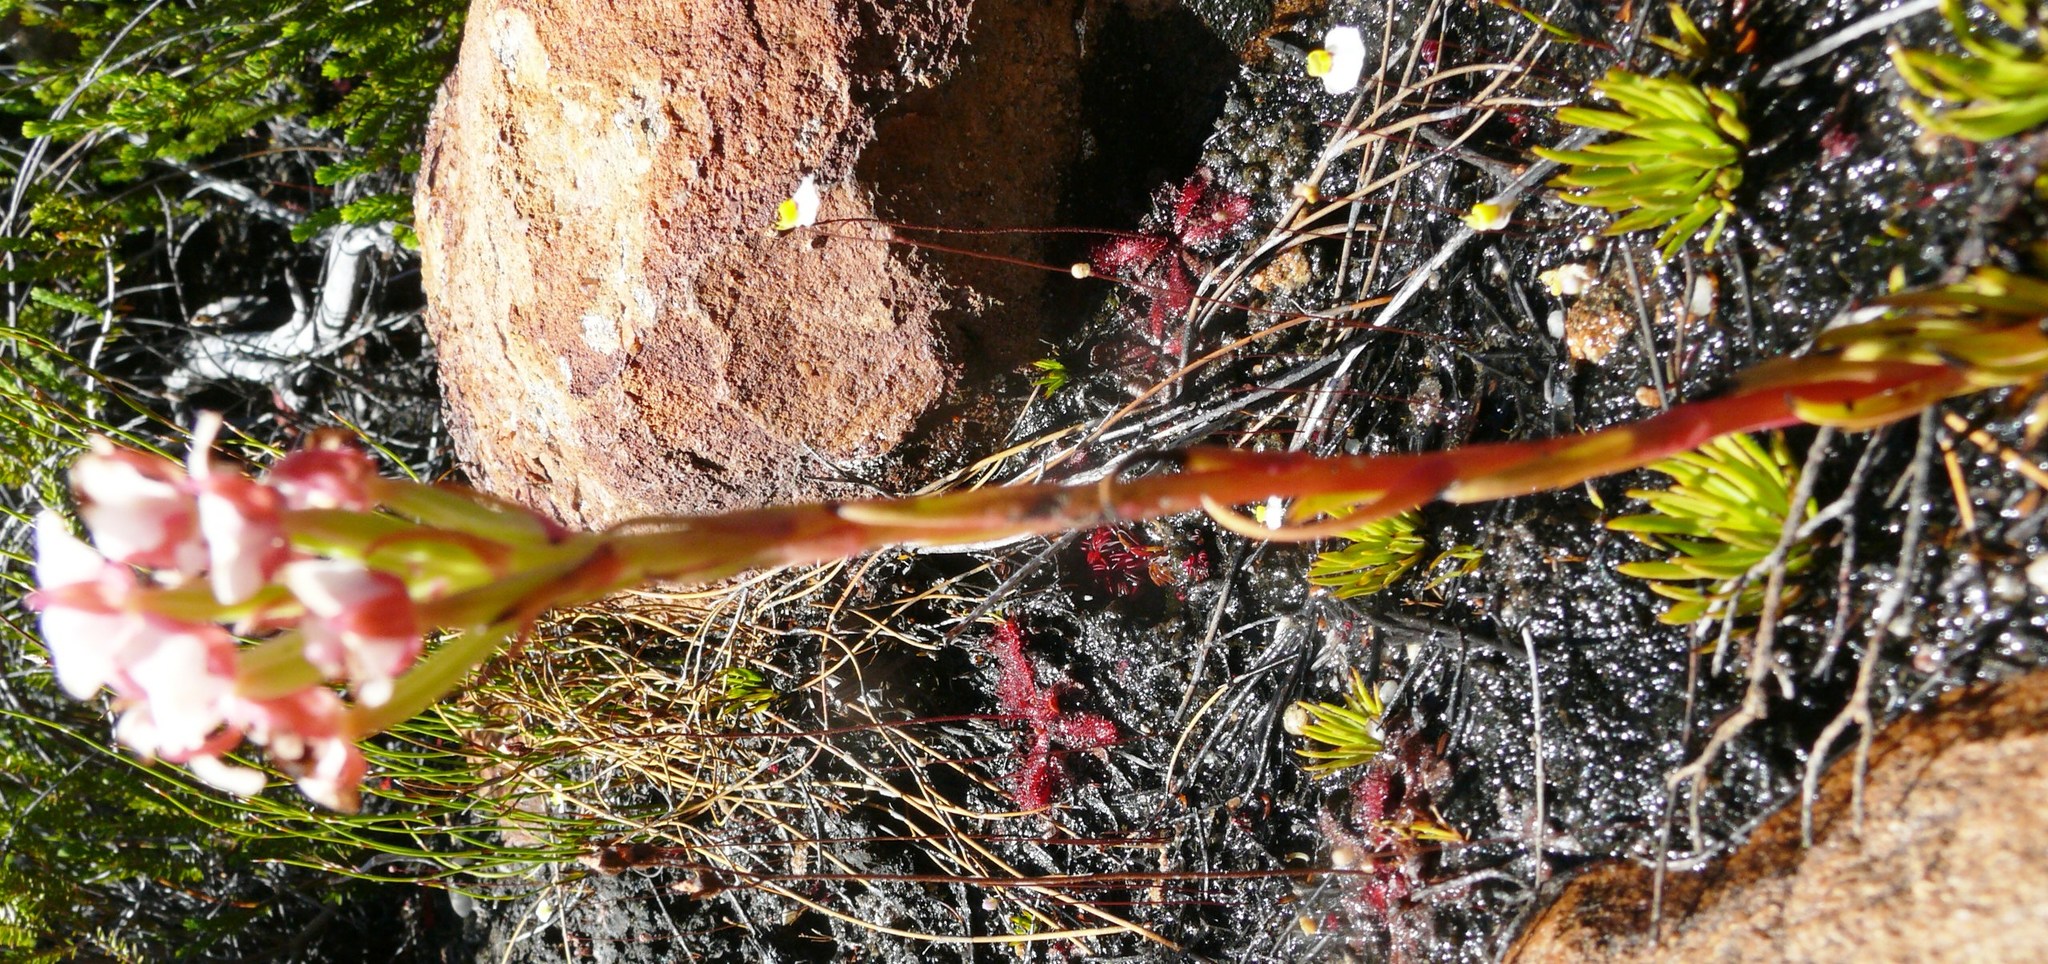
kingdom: Plantae
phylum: Tracheophyta
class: Liliopsida
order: Asparagales
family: Orchidaceae
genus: Ceratandra
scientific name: Ceratandra globosa
